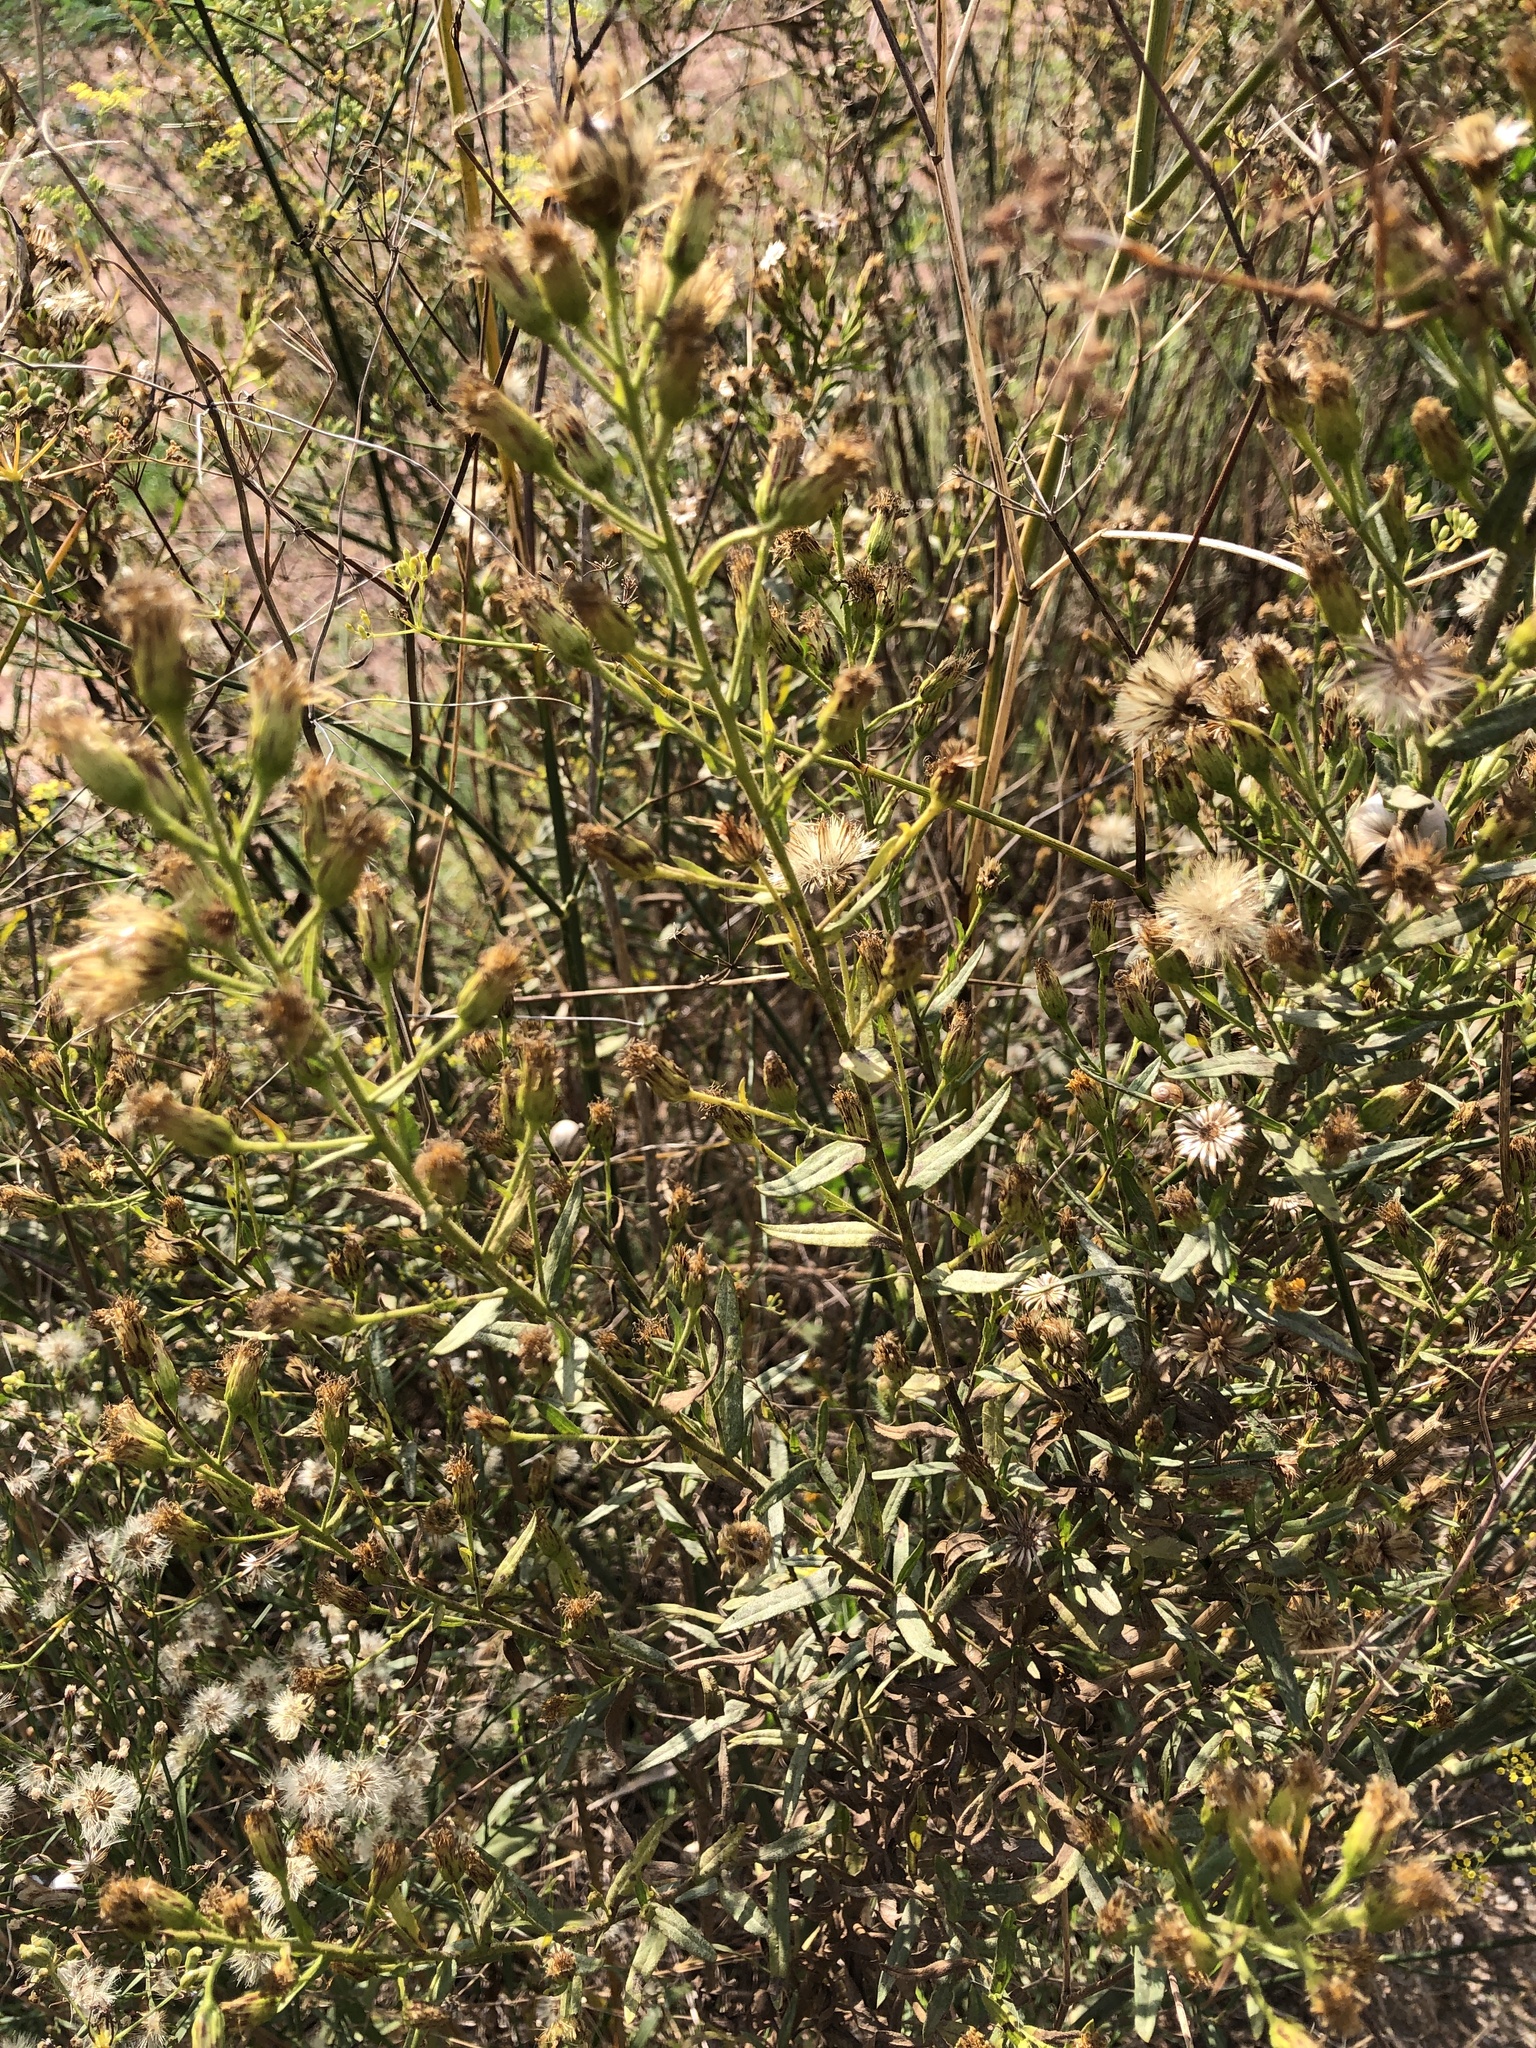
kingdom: Plantae
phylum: Tracheophyta
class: Magnoliopsida
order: Asterales
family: Asteraceae
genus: Dittrichia
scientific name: Dittrichia viscosa
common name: Woody fleabane
